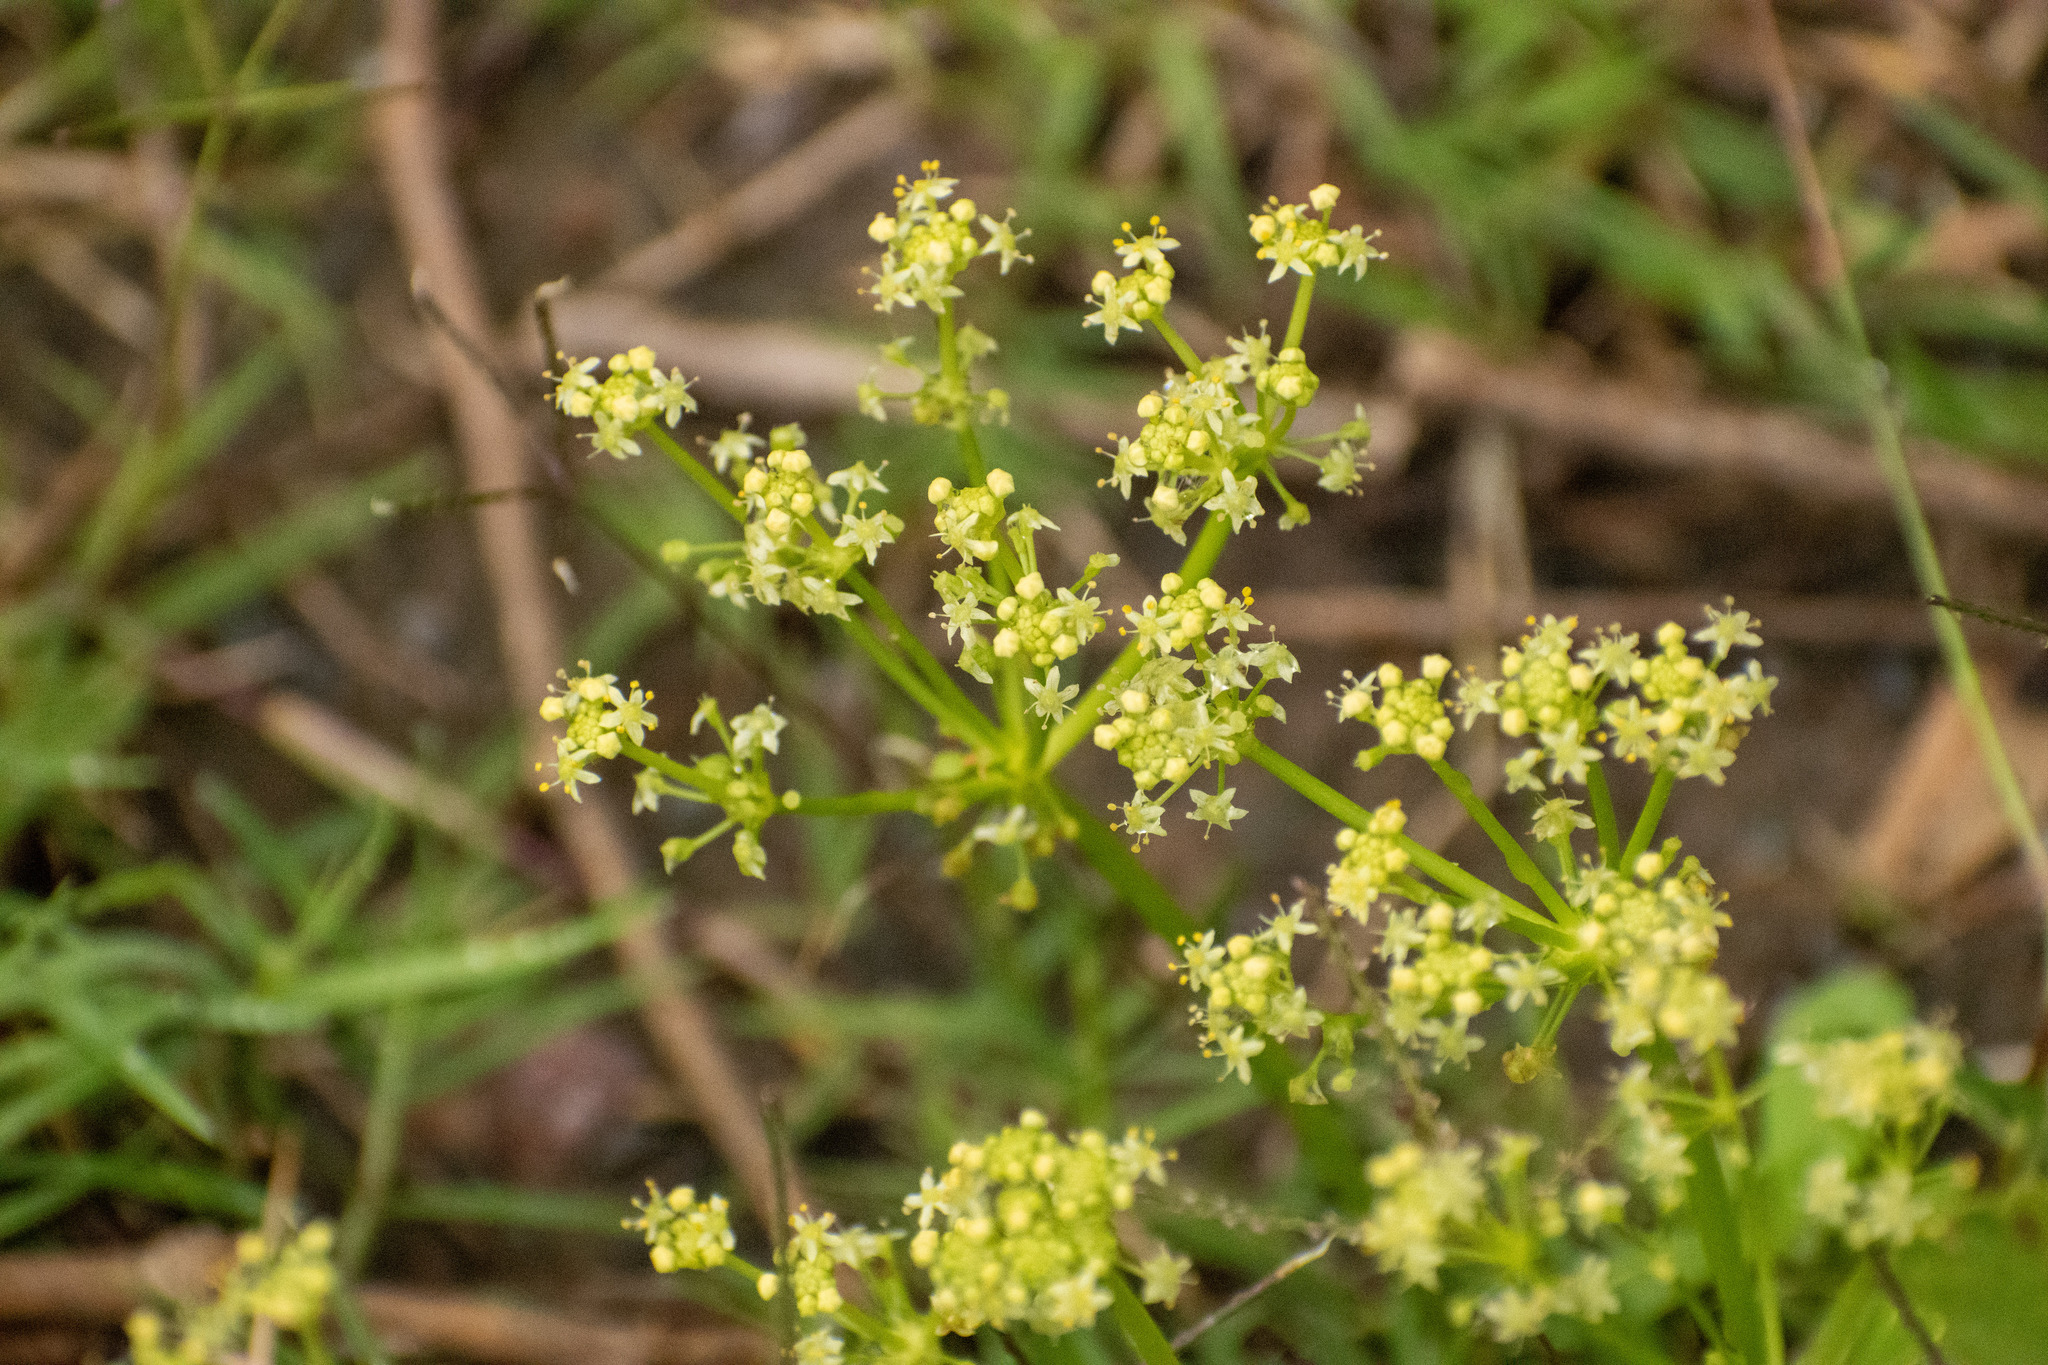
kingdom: Plantae
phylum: Tracheophyta
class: Magnoliopsida
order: Apiales
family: Araliaceae
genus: Hydrocotyle
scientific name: Hydrocotyle bonariensis
